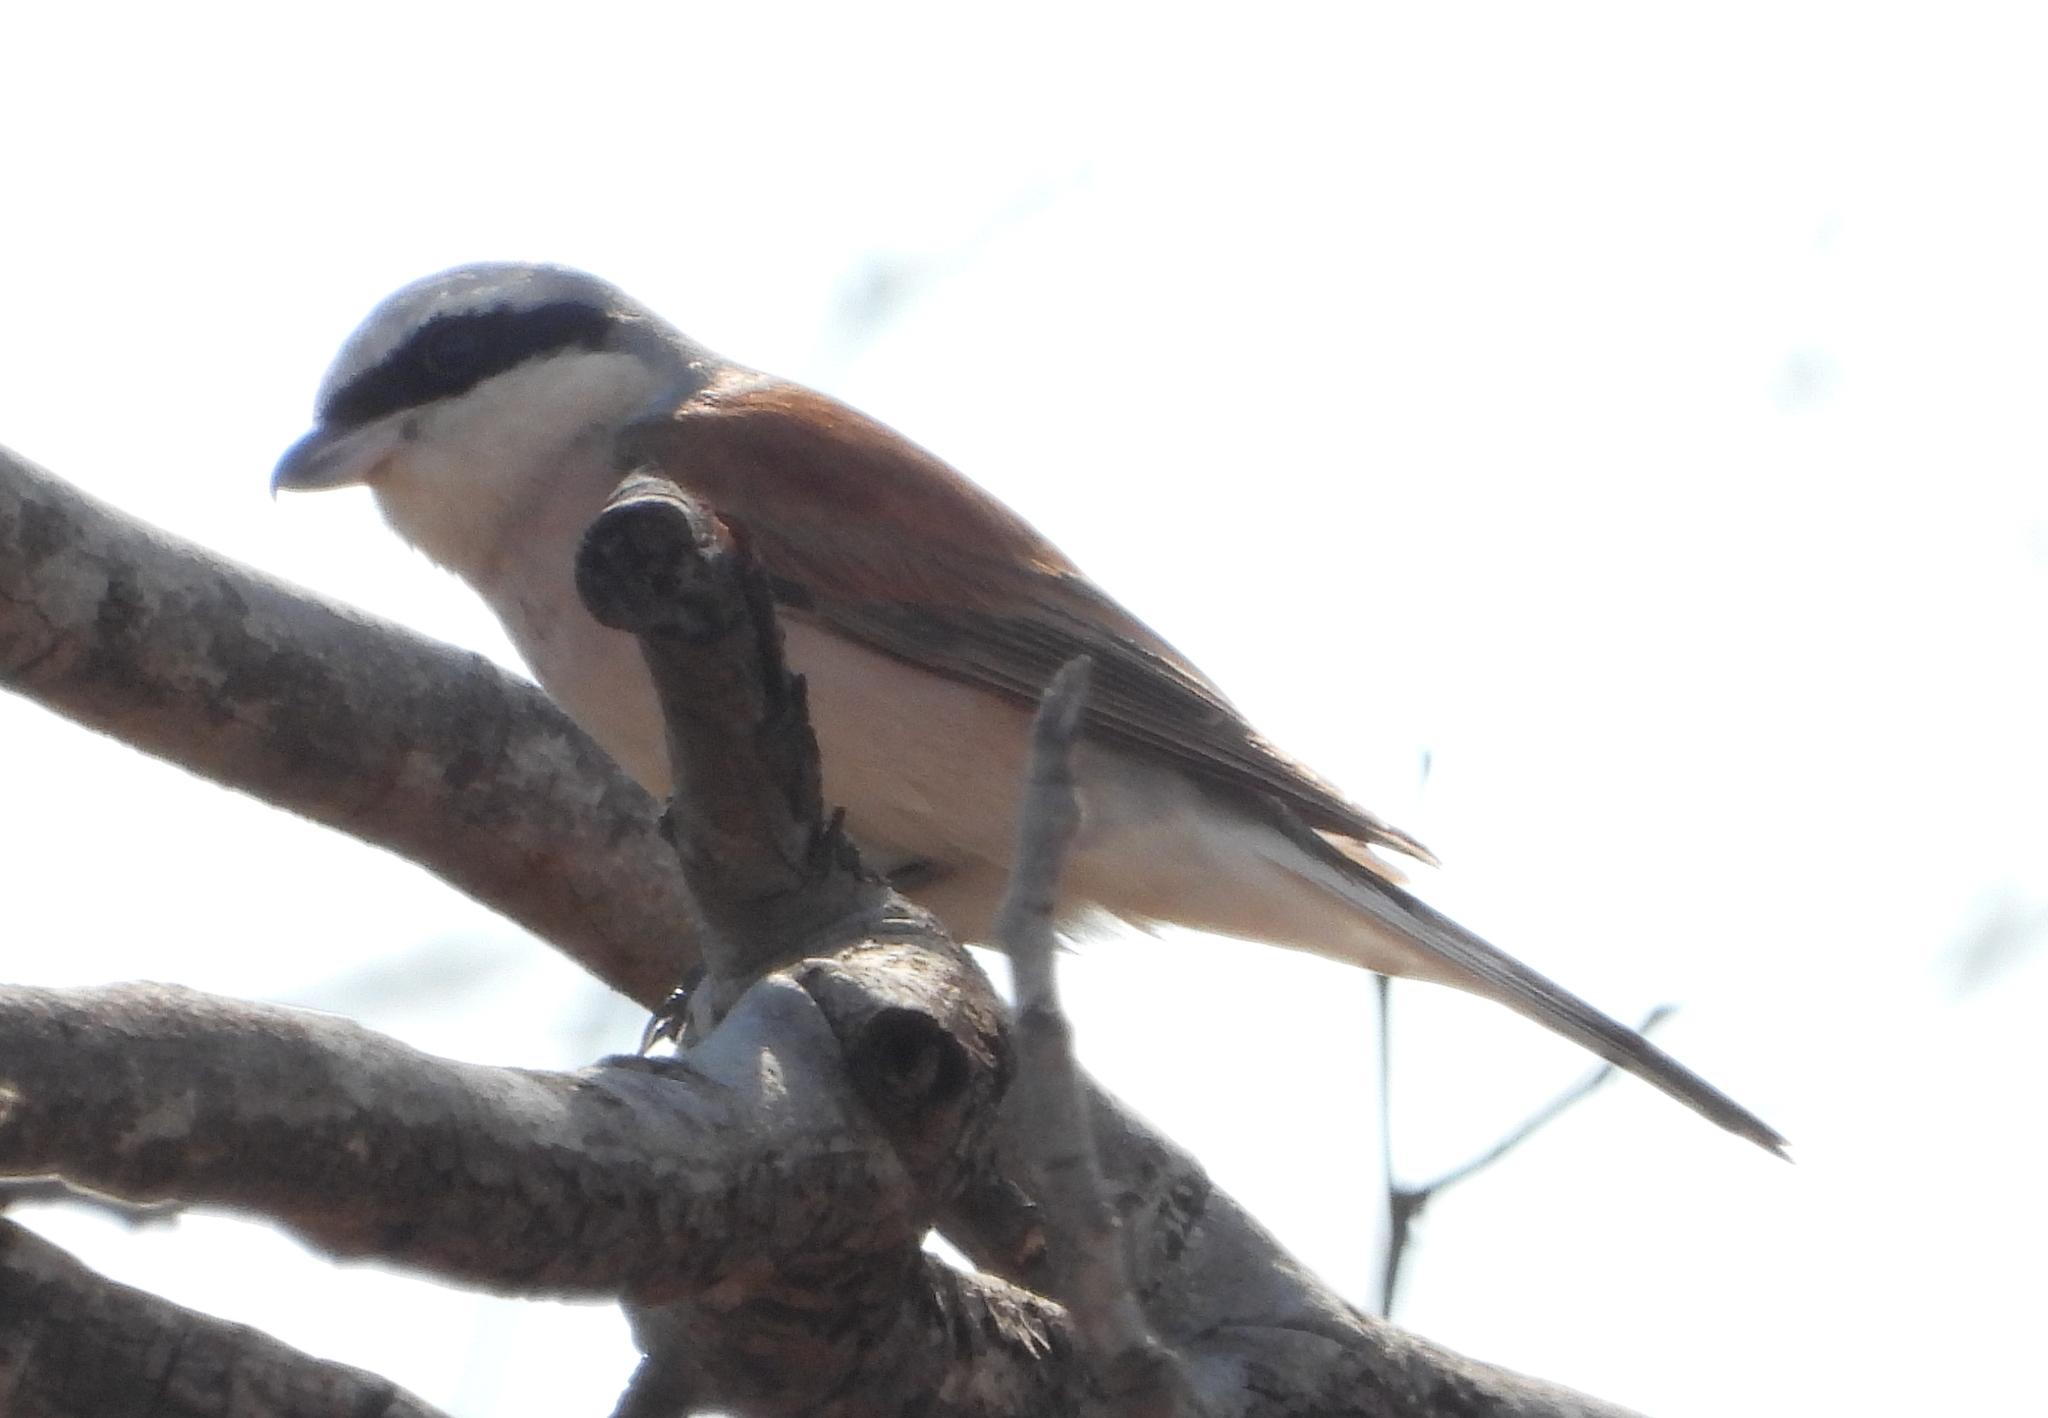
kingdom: Animalia
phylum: Chordata
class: Aves
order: Passeriformes
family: Laniidae
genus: Lanius
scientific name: Lanius collurio
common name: Red-backed shrike
